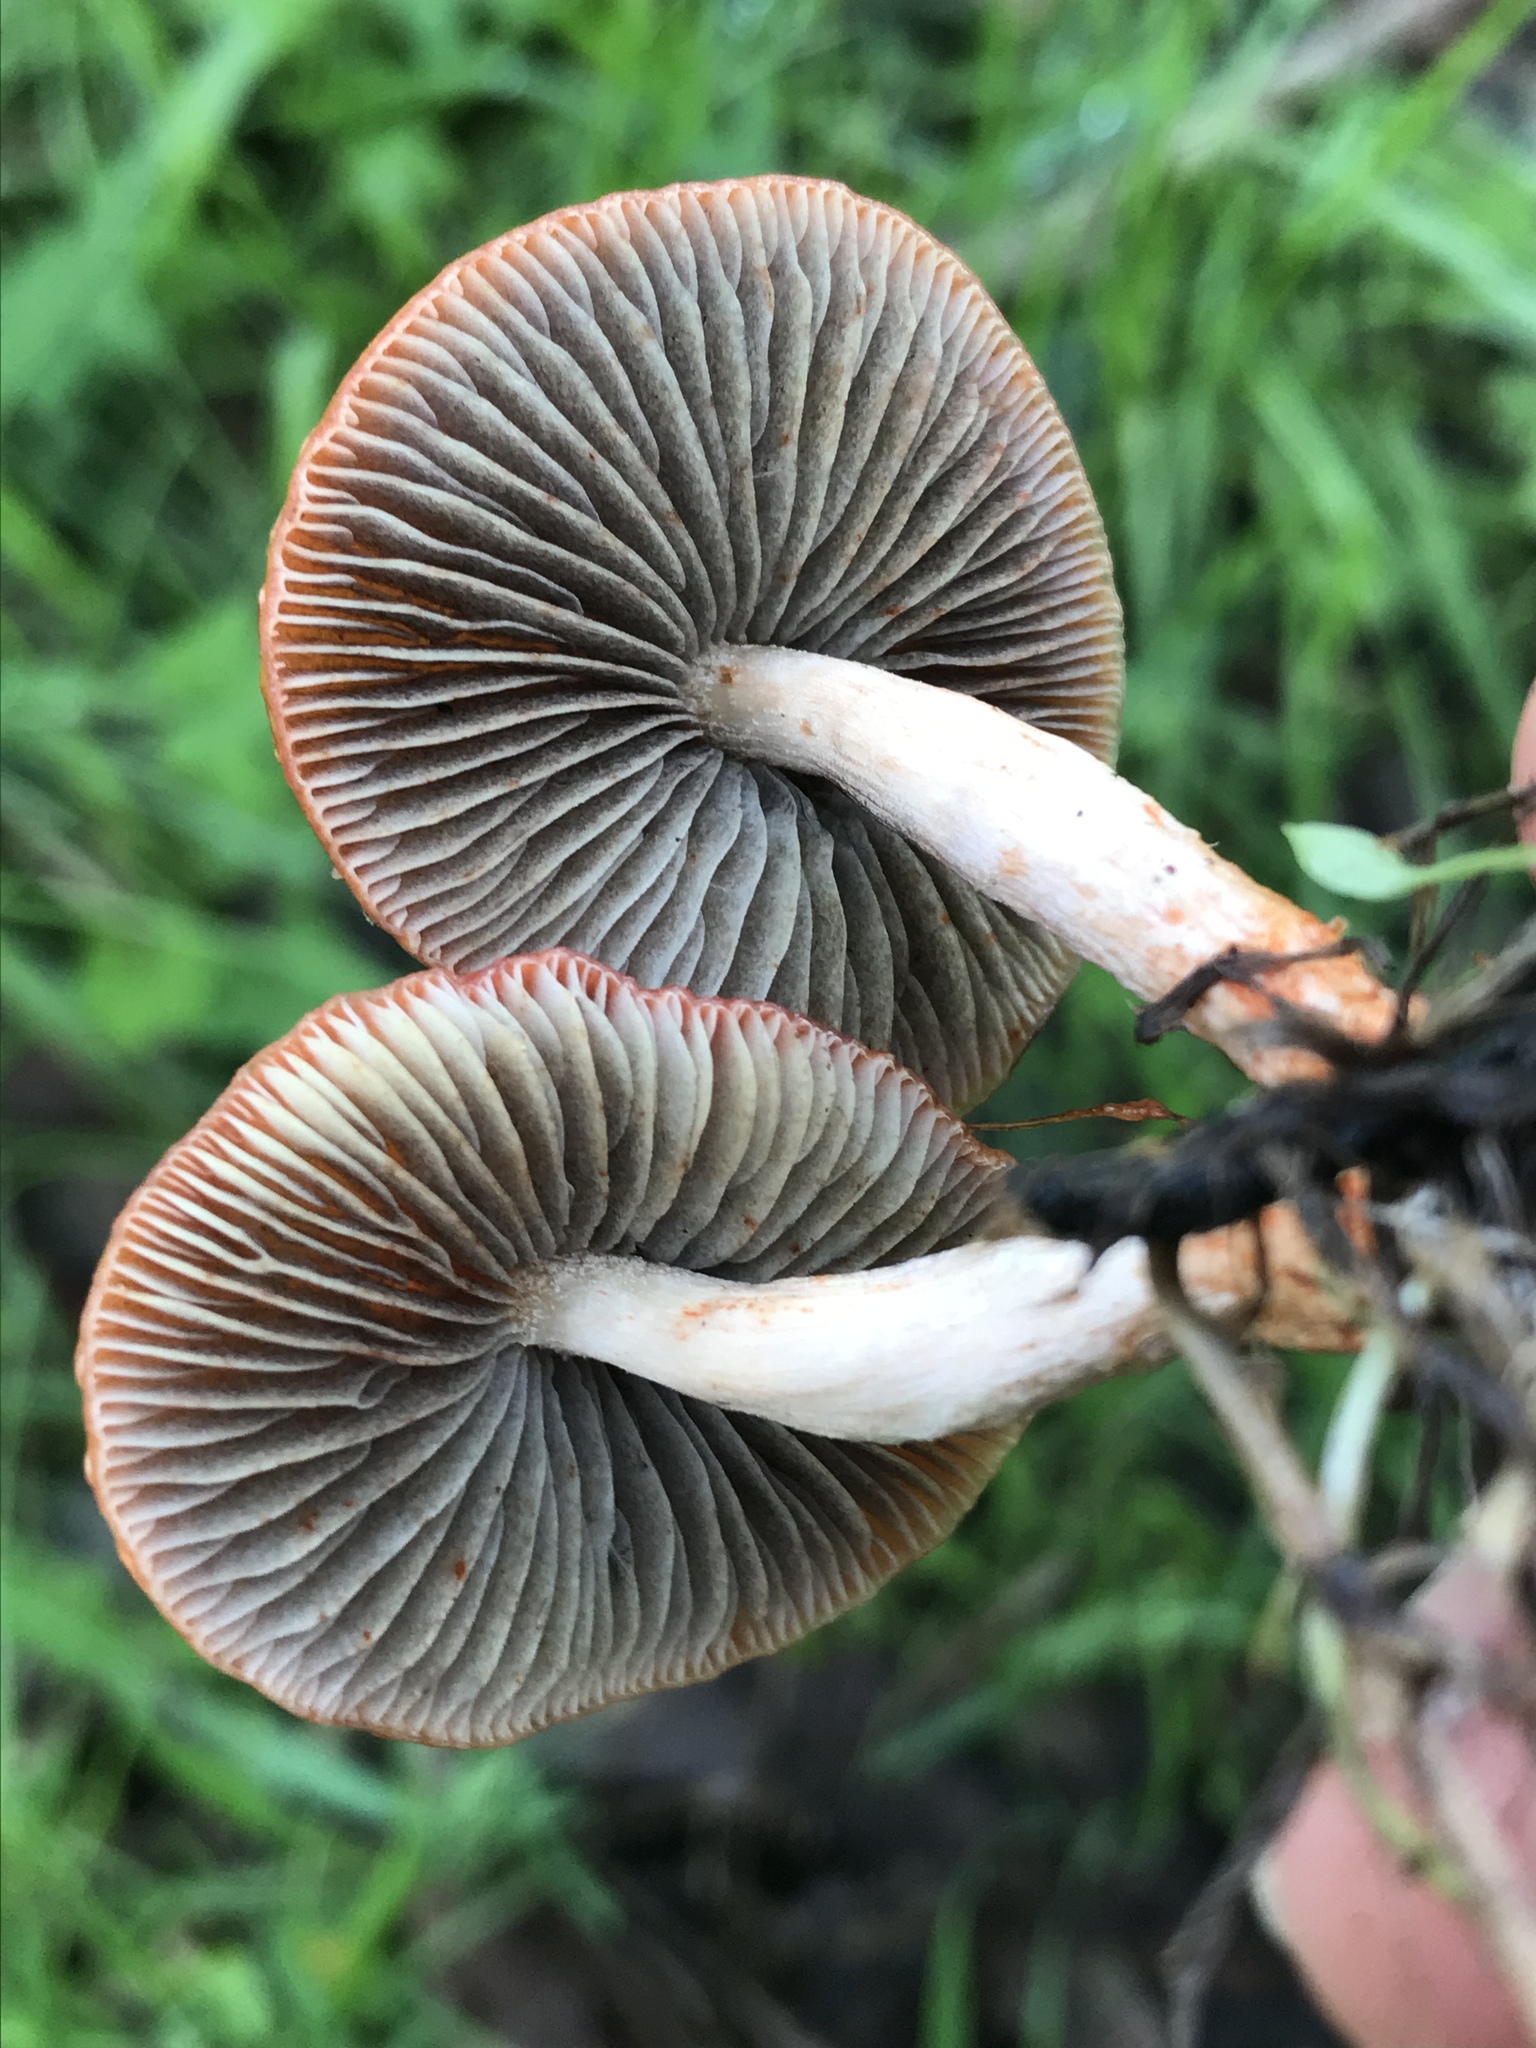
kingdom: Fungi
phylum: Basidiomycota
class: Agaricomycetes
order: Agaricales
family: Strophariaceae
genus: Leratiomyces
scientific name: Leratiomyces ceres
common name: Redlead roundhead
